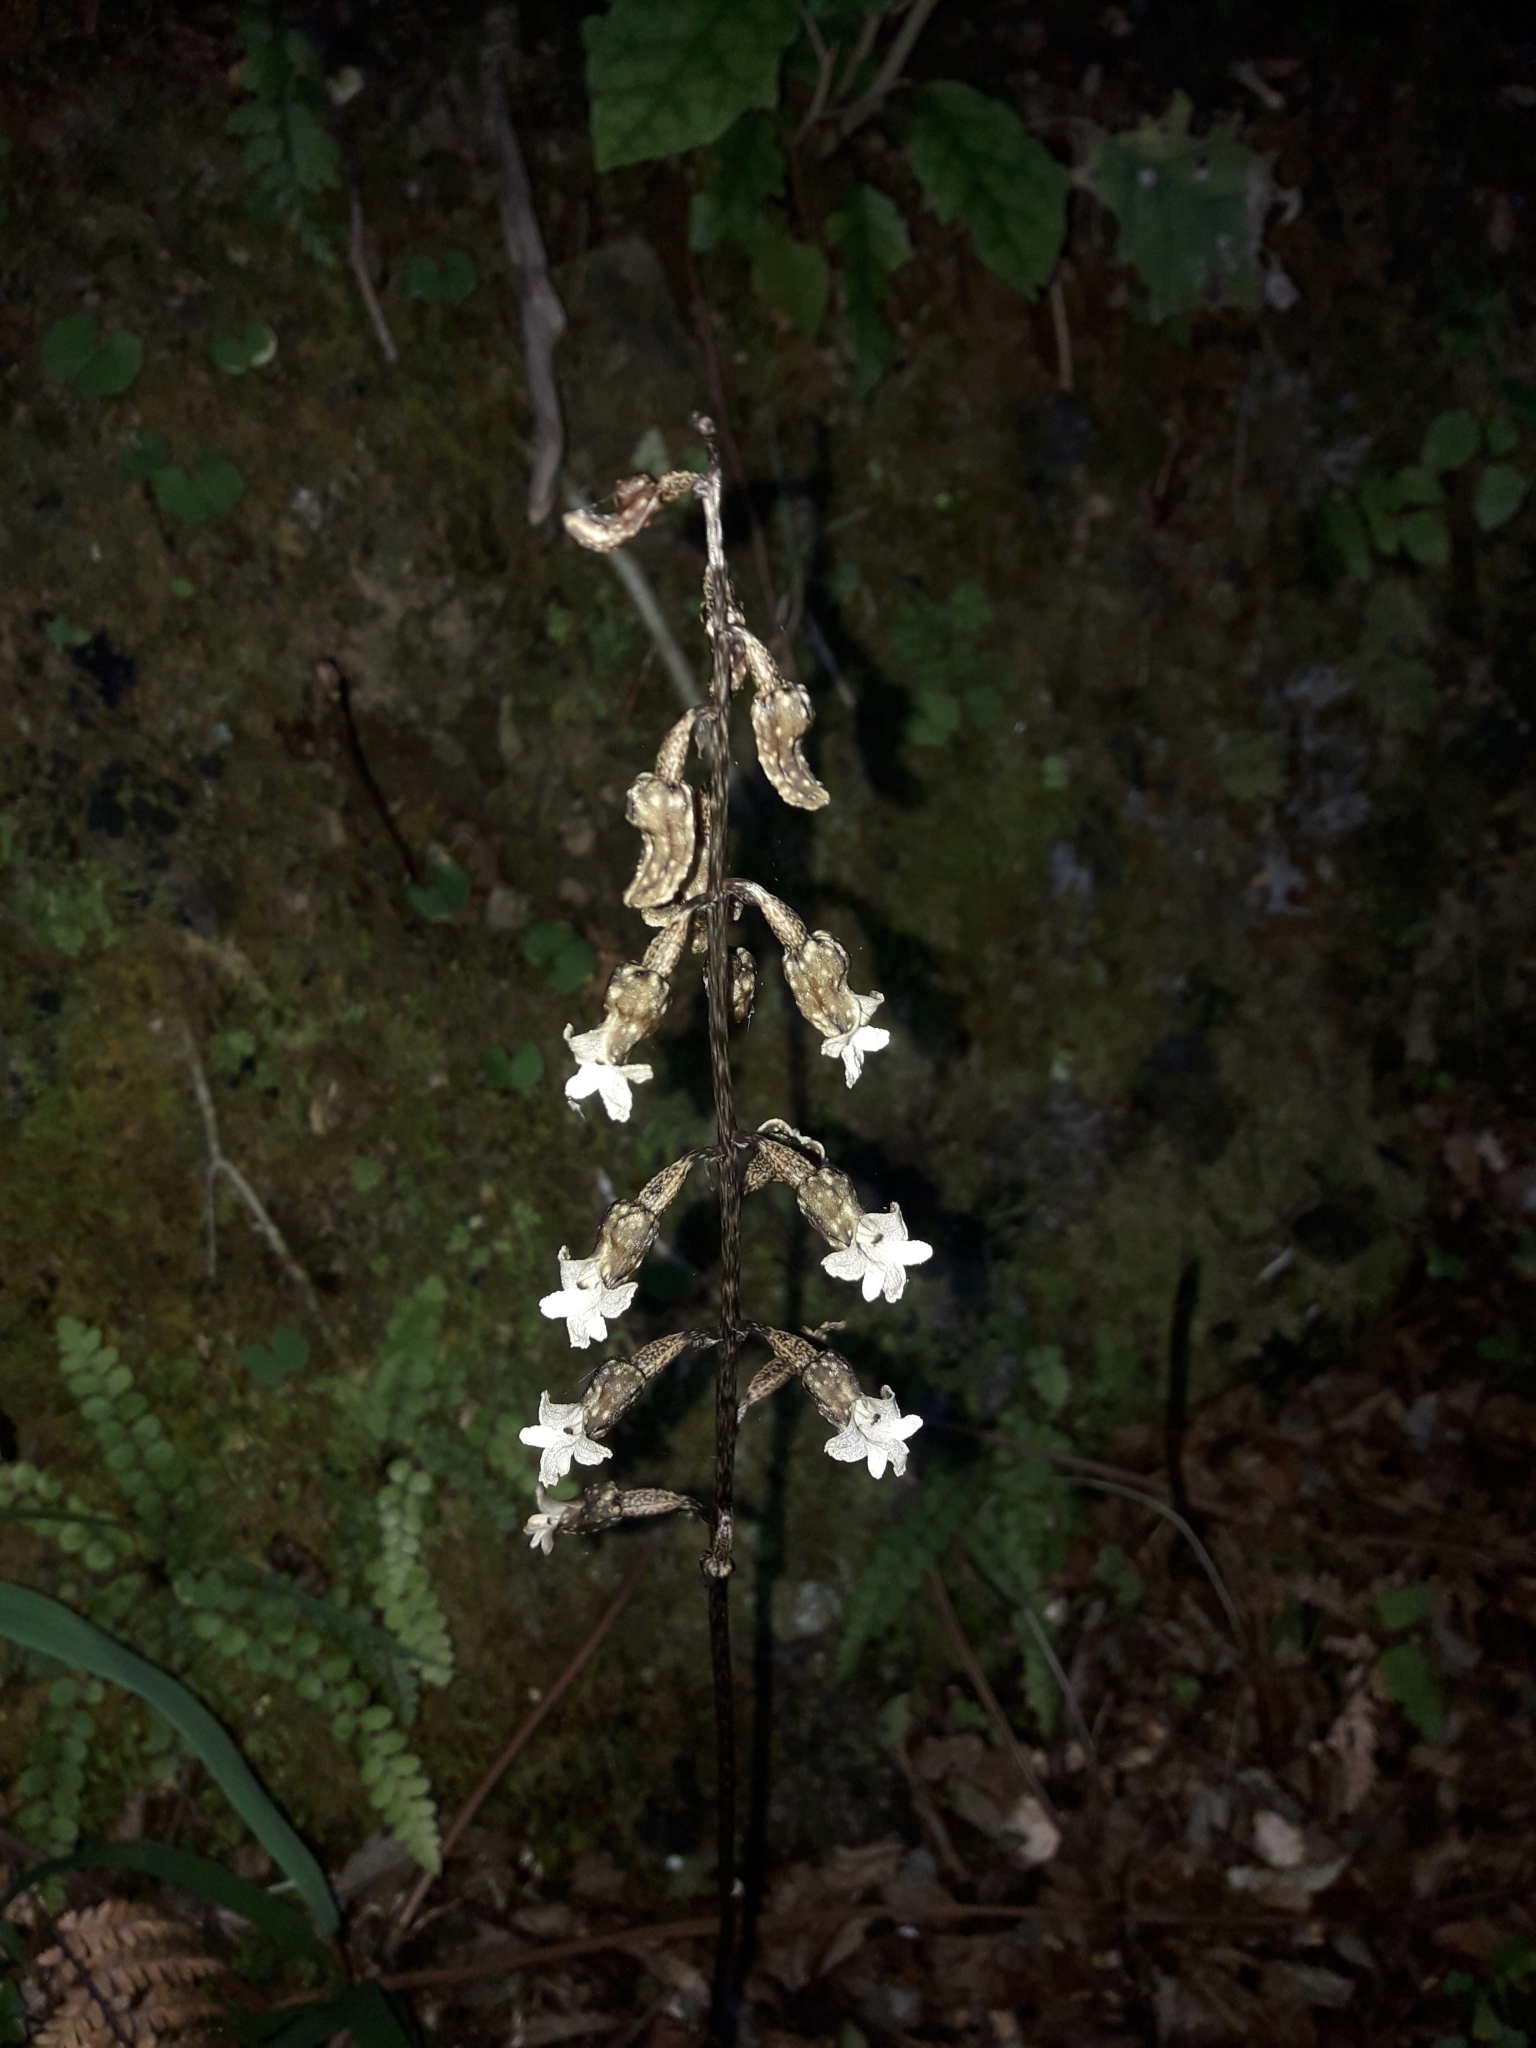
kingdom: Plantae
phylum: Tracheophyta
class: Liliopsida
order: Asparagales
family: Orchidaceae
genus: Gastrodia
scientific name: Gastrodia cunninghamii
